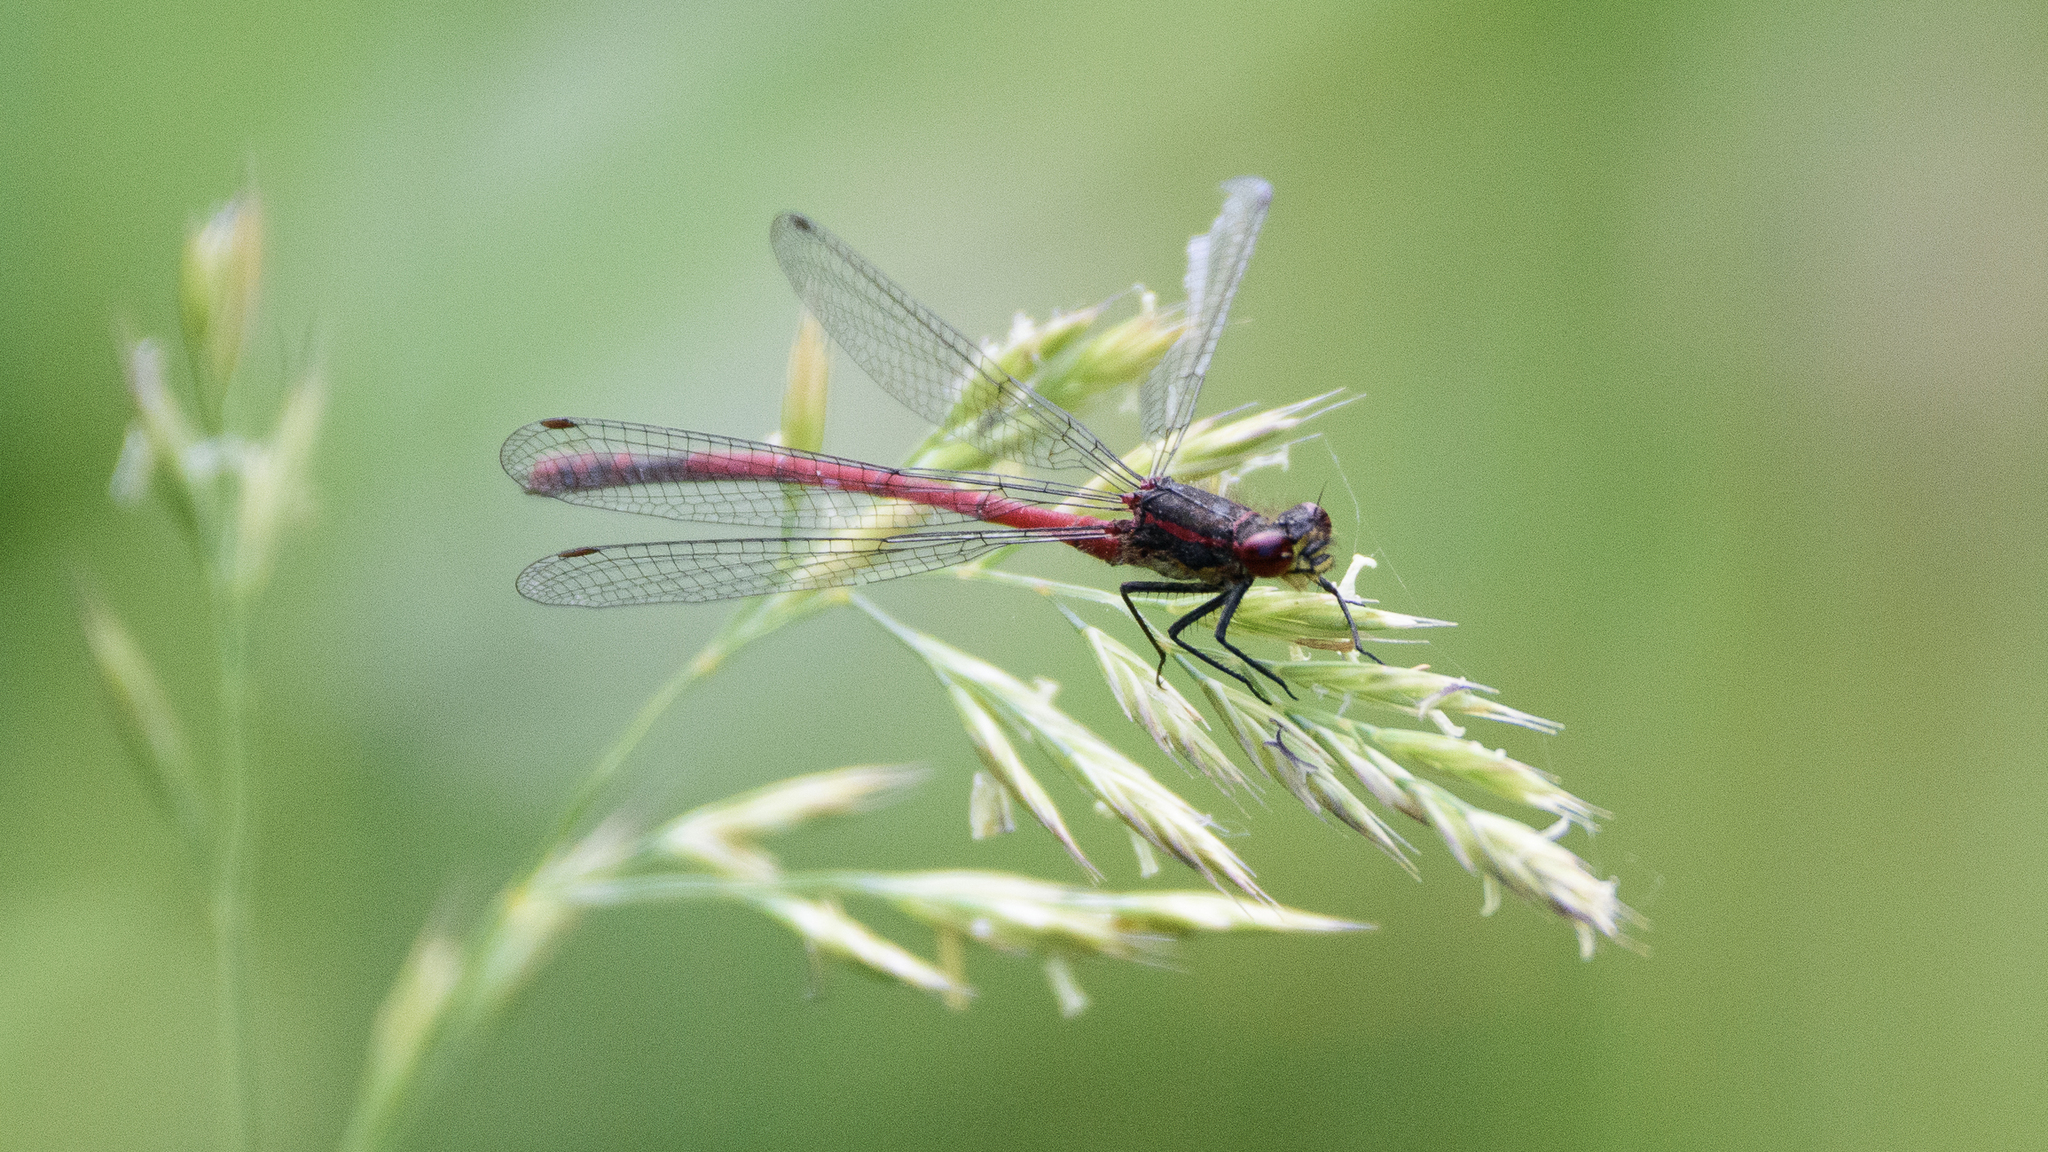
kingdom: Animalia
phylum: Arthropoda
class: Insecta
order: Odonata
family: Coenagrionidae
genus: Pyrrhosoma
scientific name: Pyrrhosoma nymphula
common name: Large red damsel
